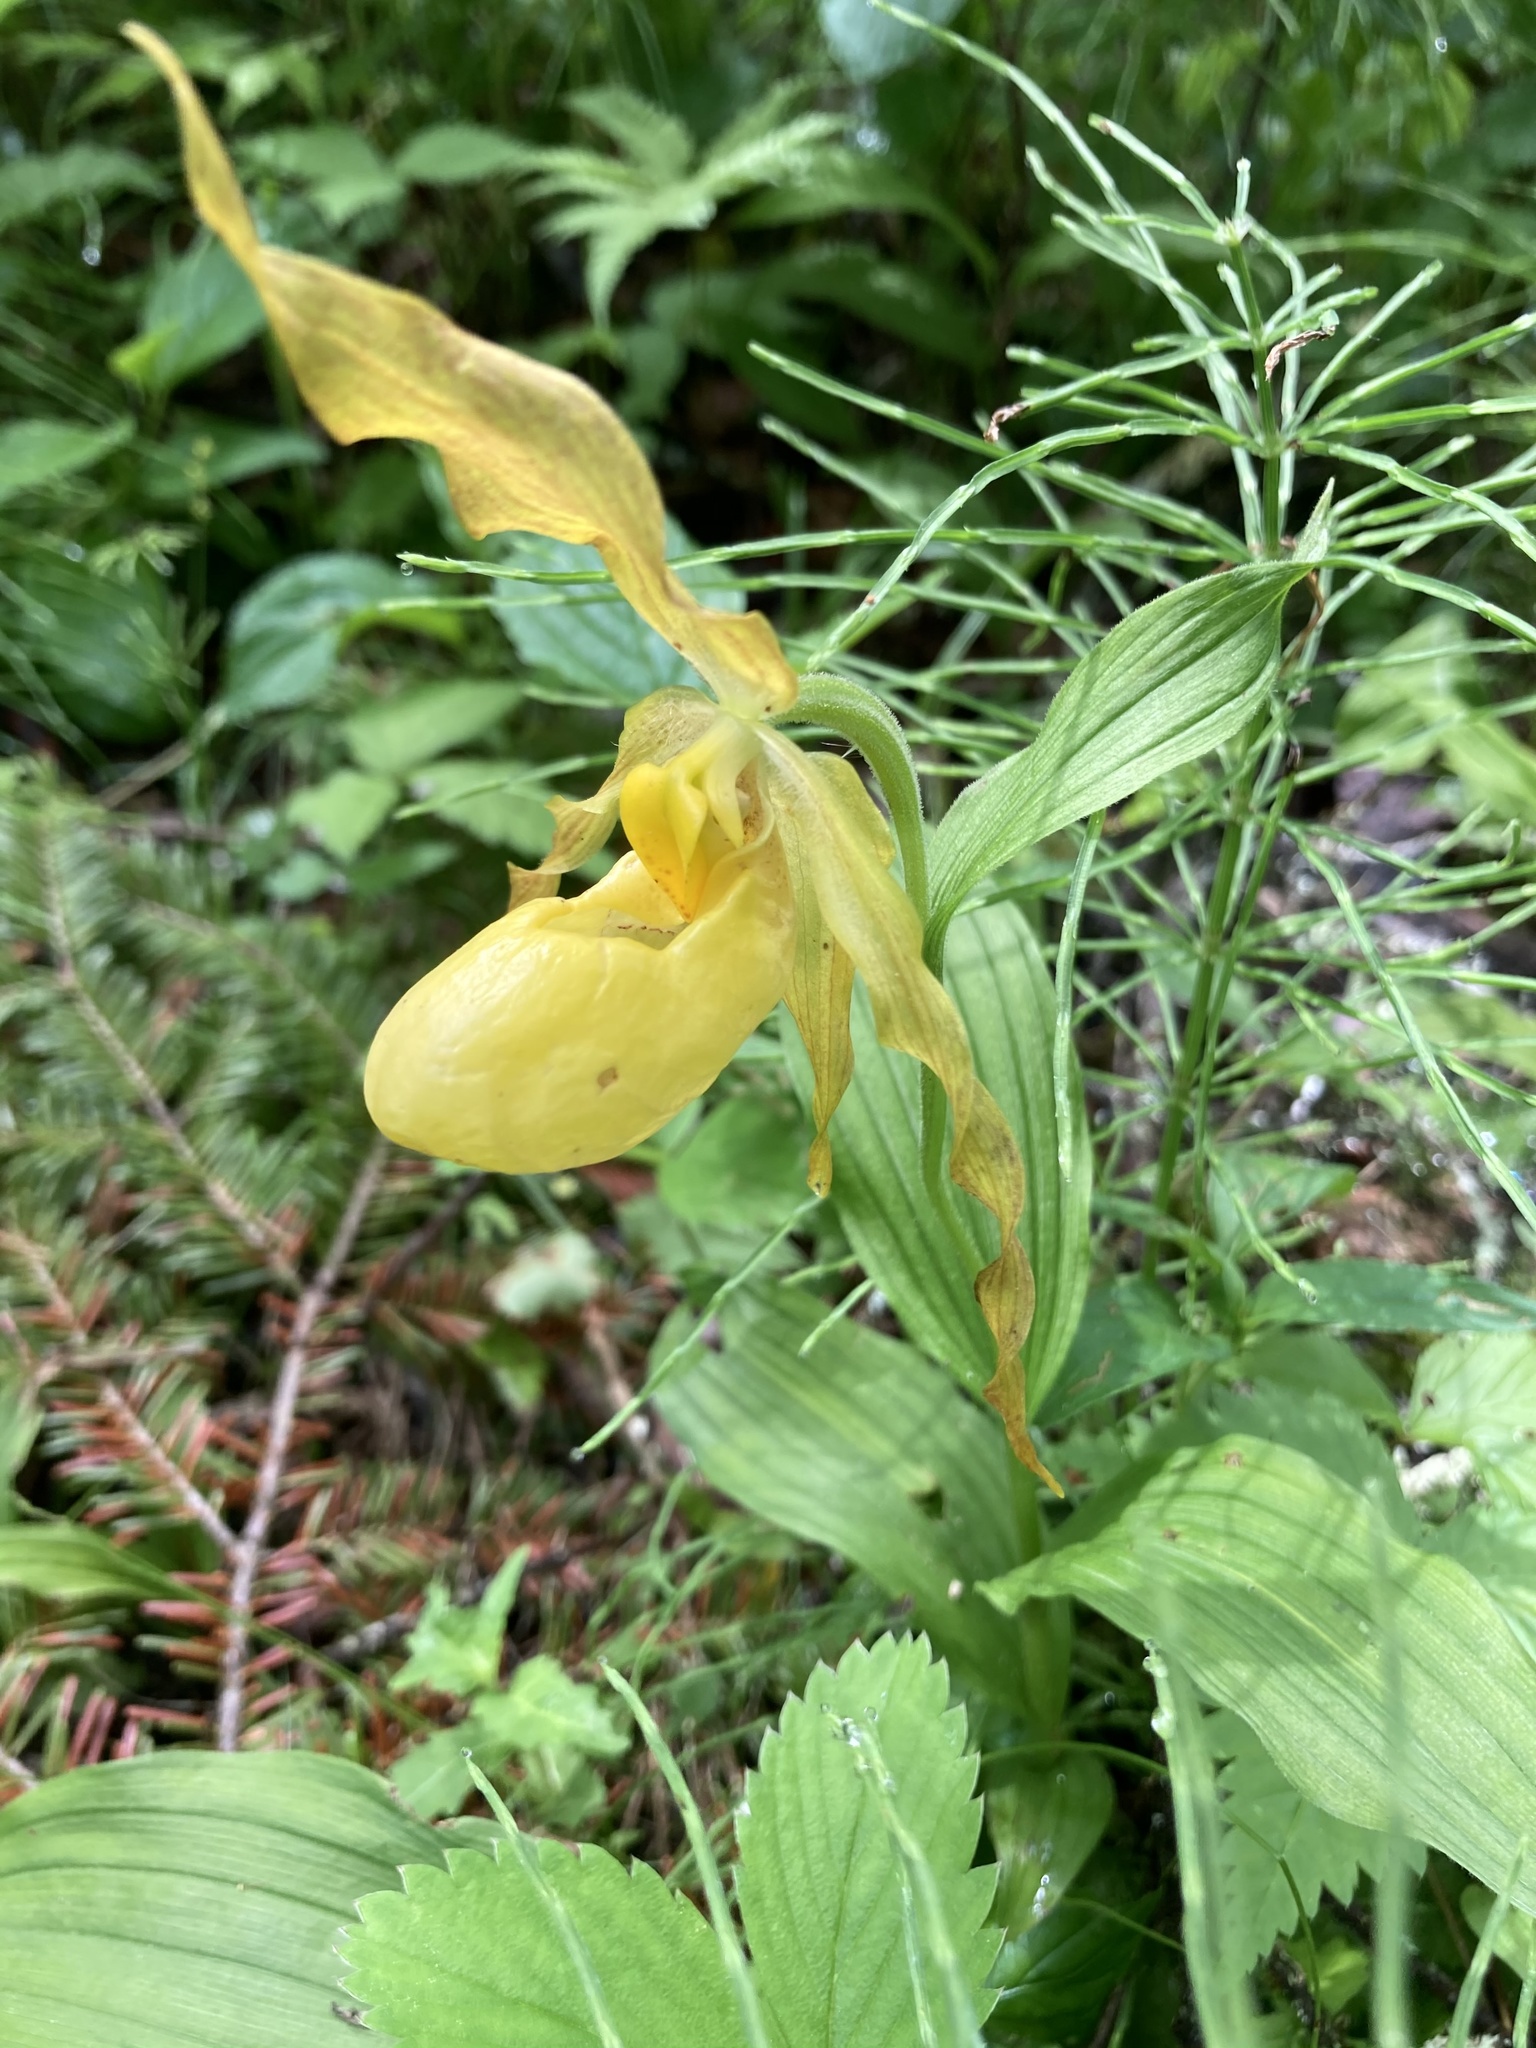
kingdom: Plantae
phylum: Tracheophyta
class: Liliopsida
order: Asparagales
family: Orchidaceae
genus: Cypripedium
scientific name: Cypripedium parviflorum
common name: American yellow lady's-slipper
